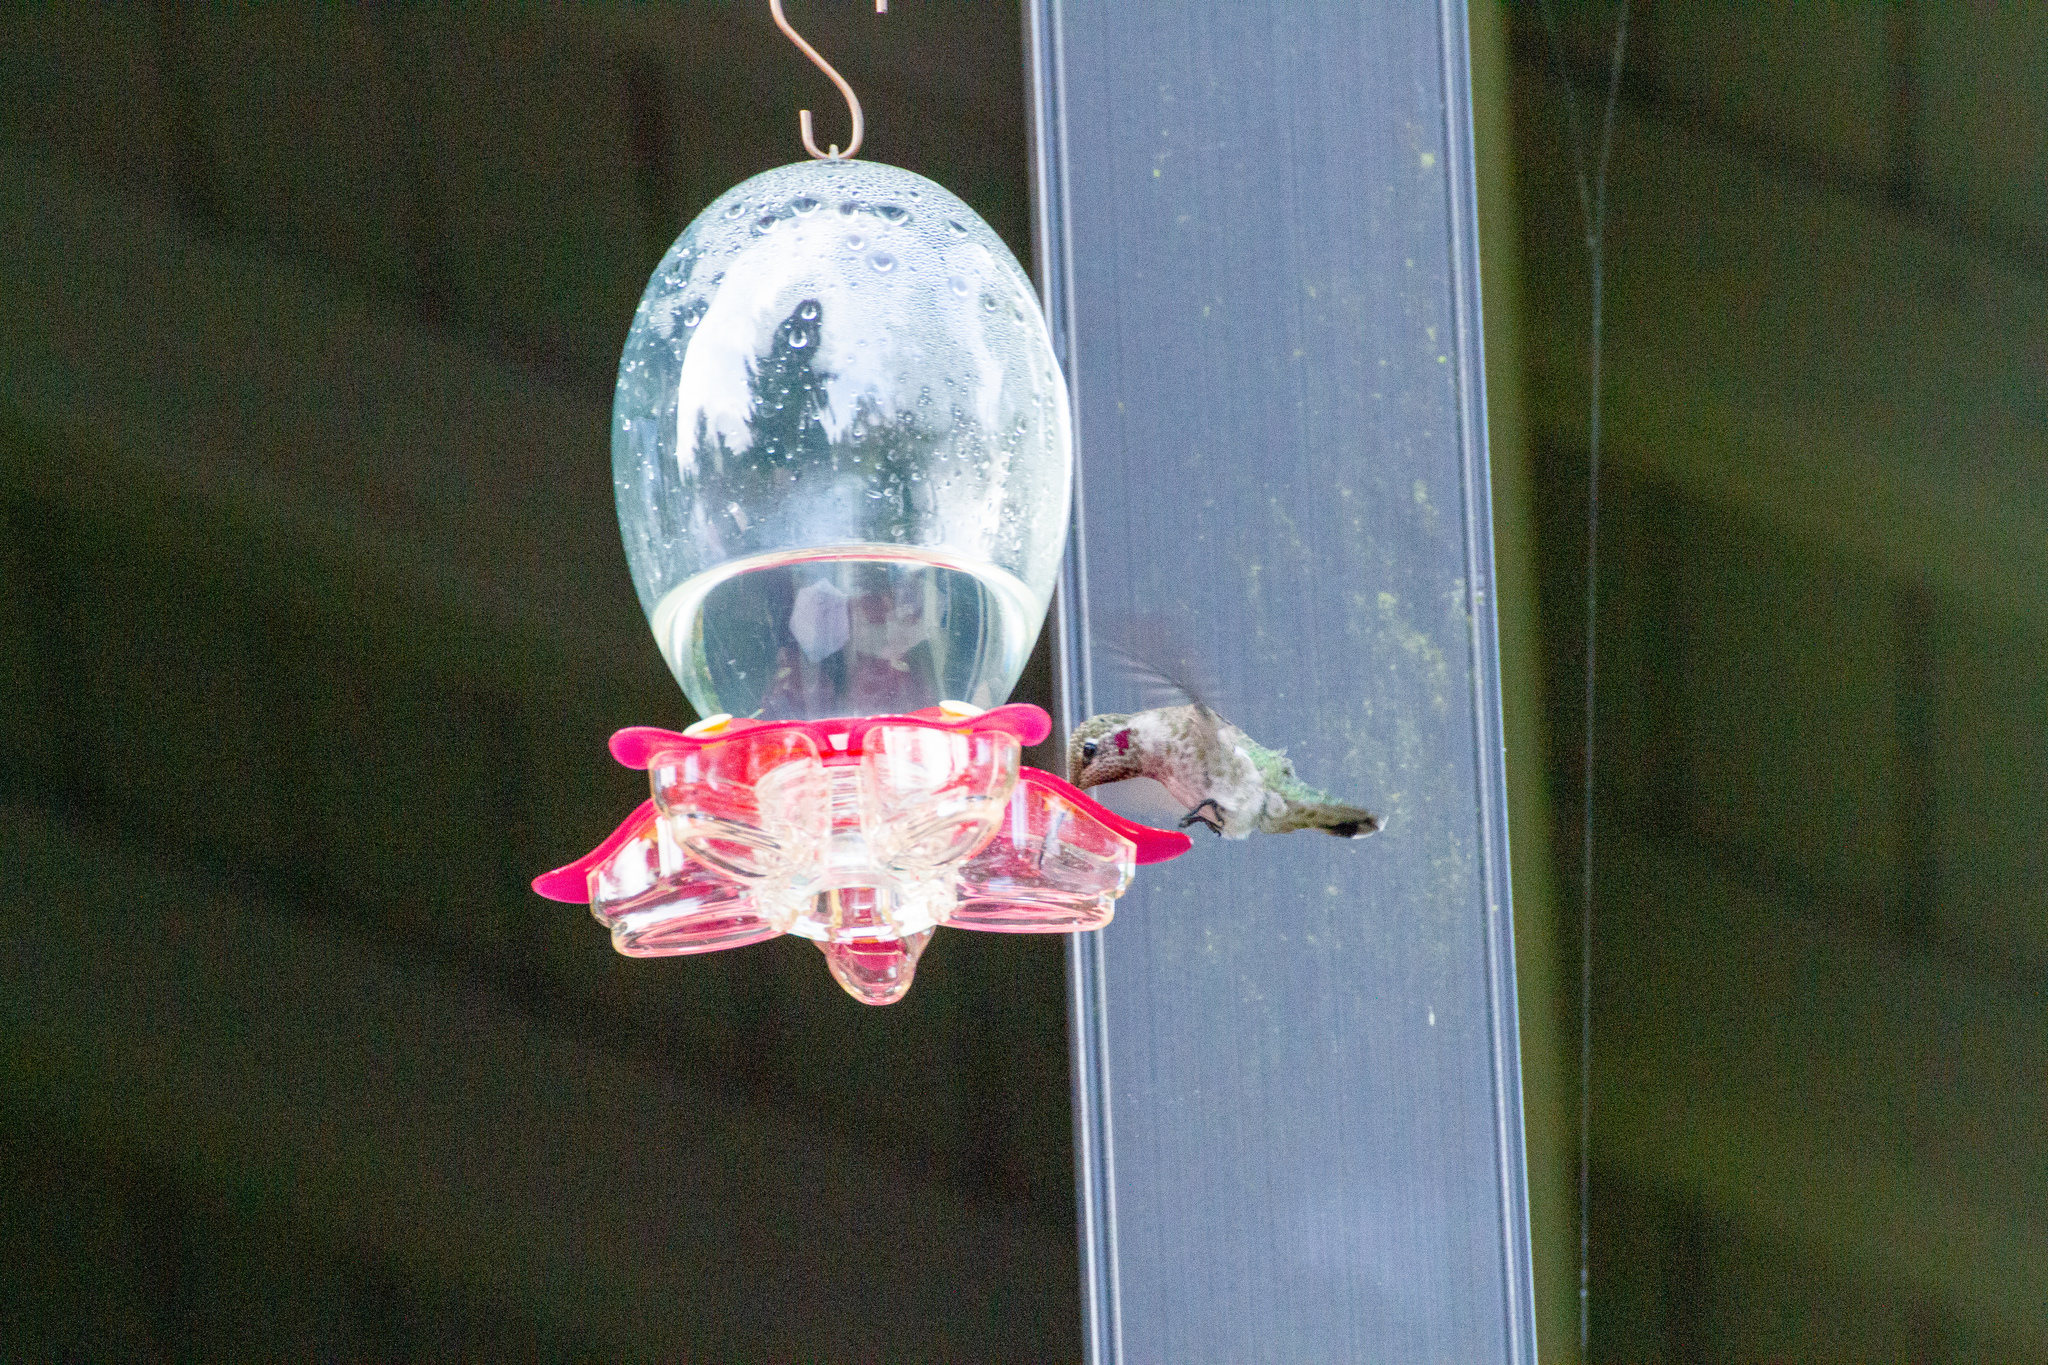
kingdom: Animalia
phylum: Chordata
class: Aves
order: Apodiformes
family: Trochilidae
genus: Calypte
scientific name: Calypte anna
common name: Anna's hummingbird
